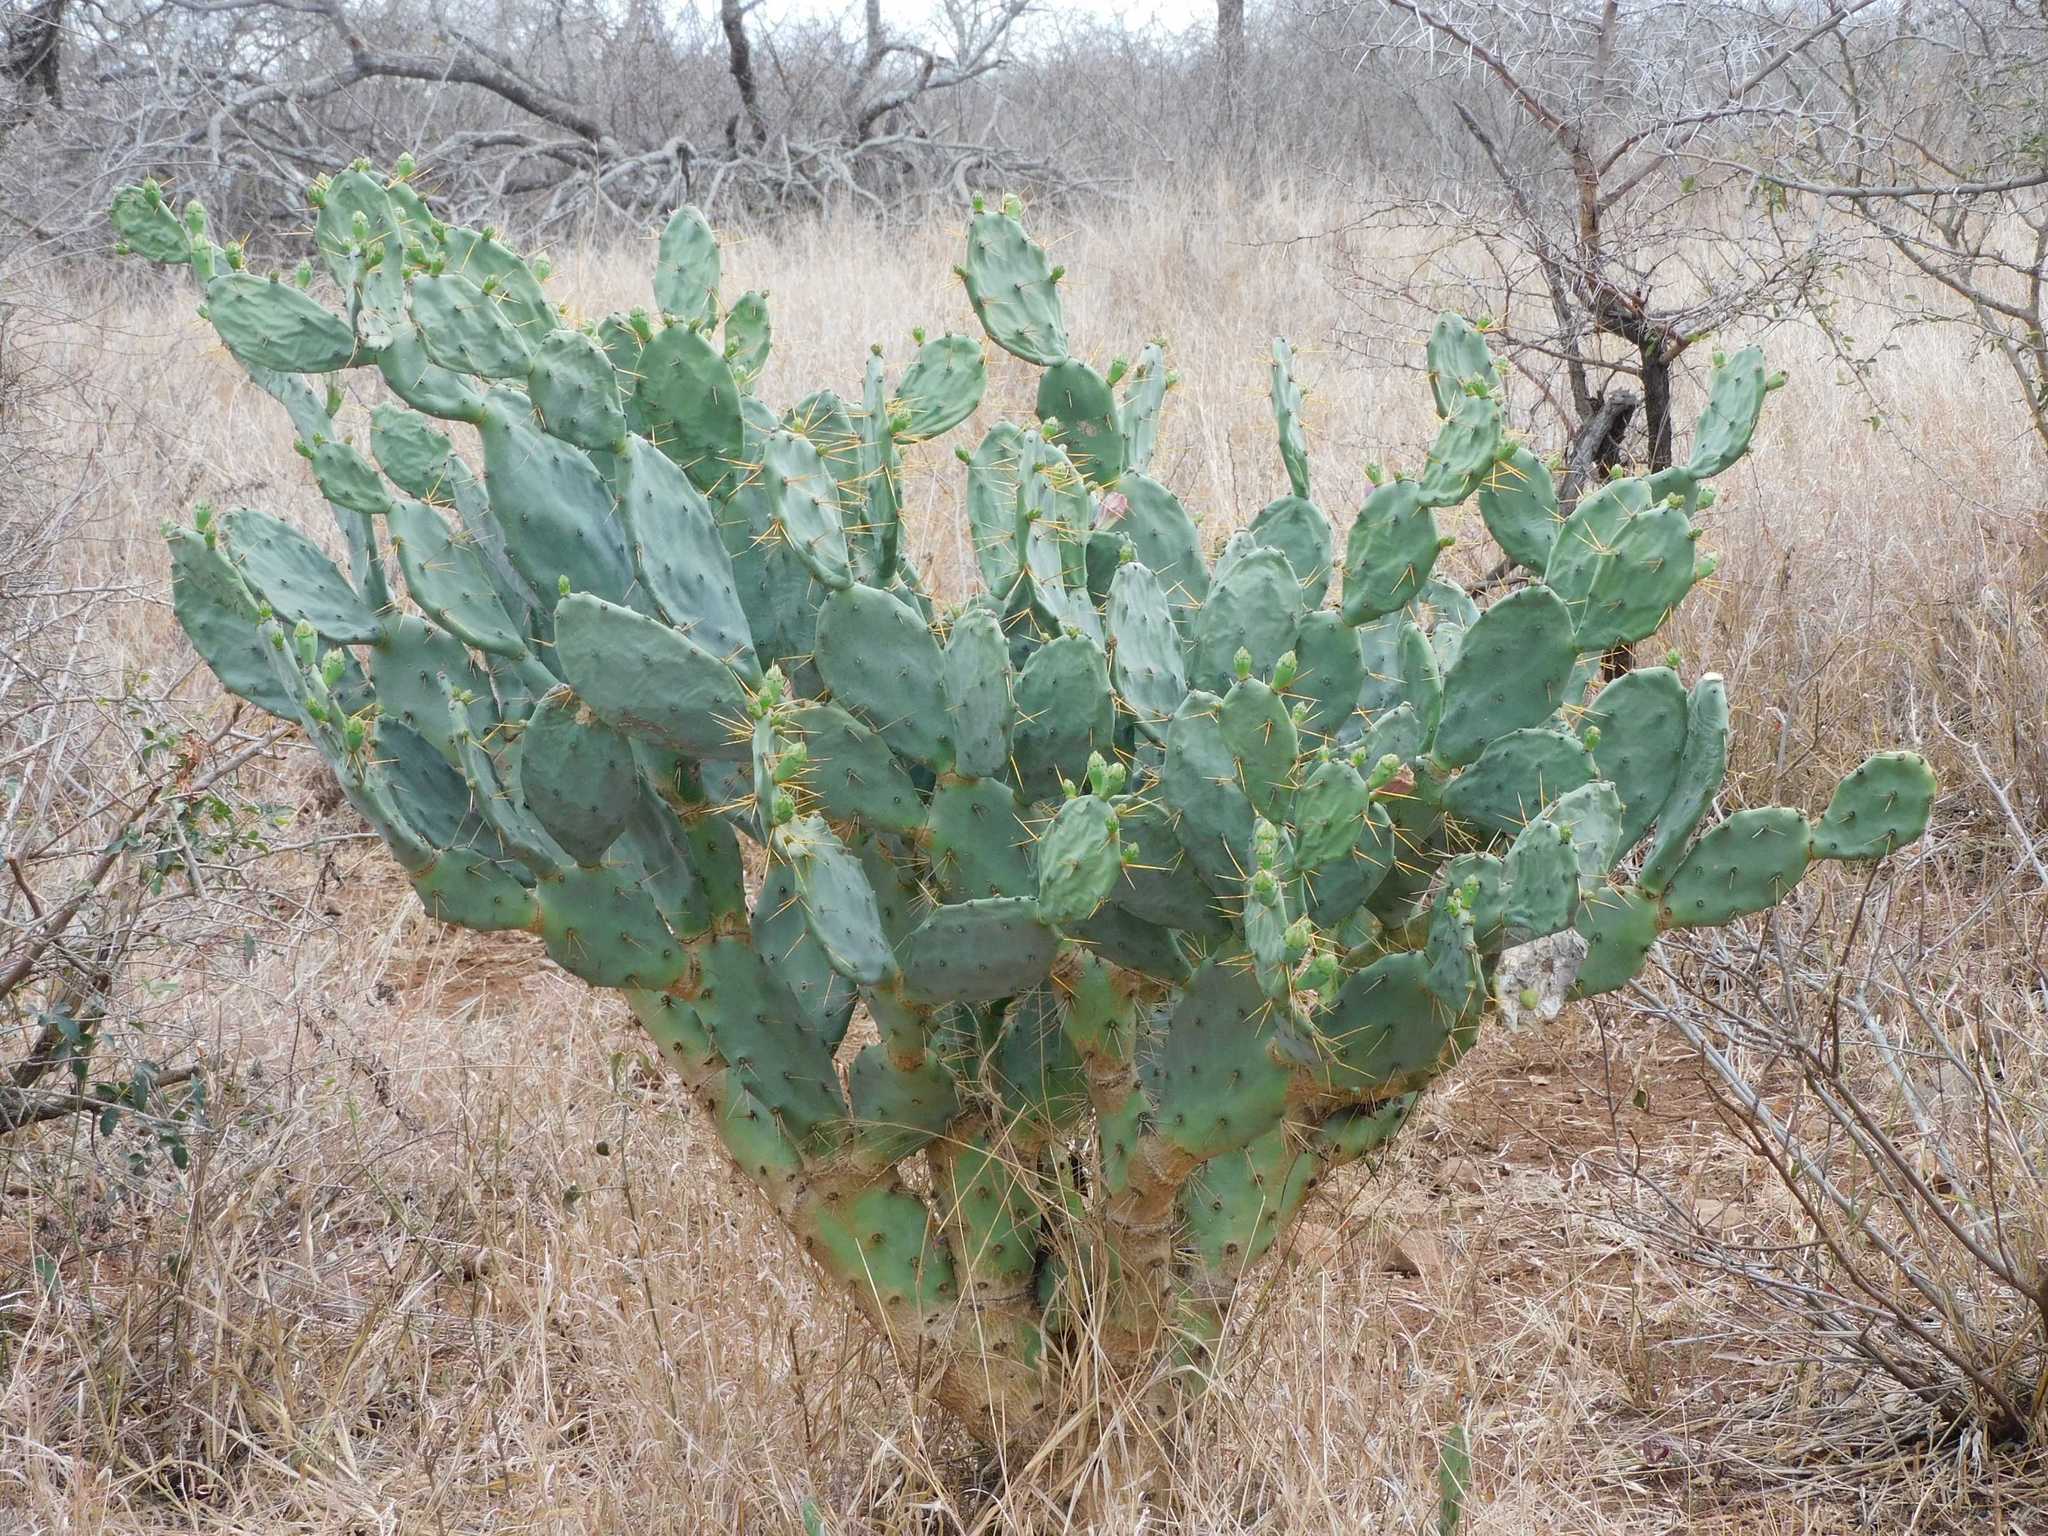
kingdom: Plantae
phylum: Tracheophyta
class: Magnoliopsida
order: Caryophyllales
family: Cactaceae
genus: Opuntia
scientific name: Opuntia stricta
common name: Erect pricklypear
